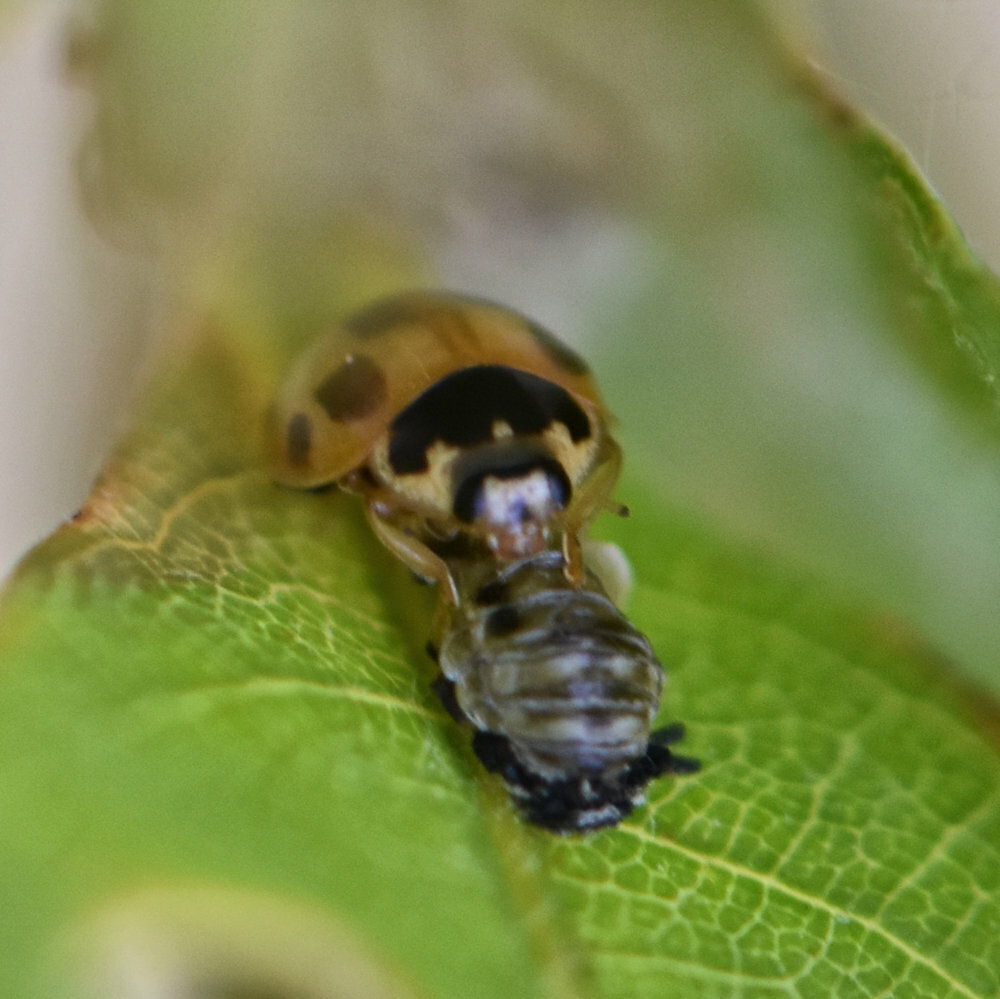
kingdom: Animalia
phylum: Arthropoda
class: Insecta
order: Coleoptera
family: Coccinellidae
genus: Propylaea
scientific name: Propylaea quatuordecimpunctata
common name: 14-spotted ladybird beetle
